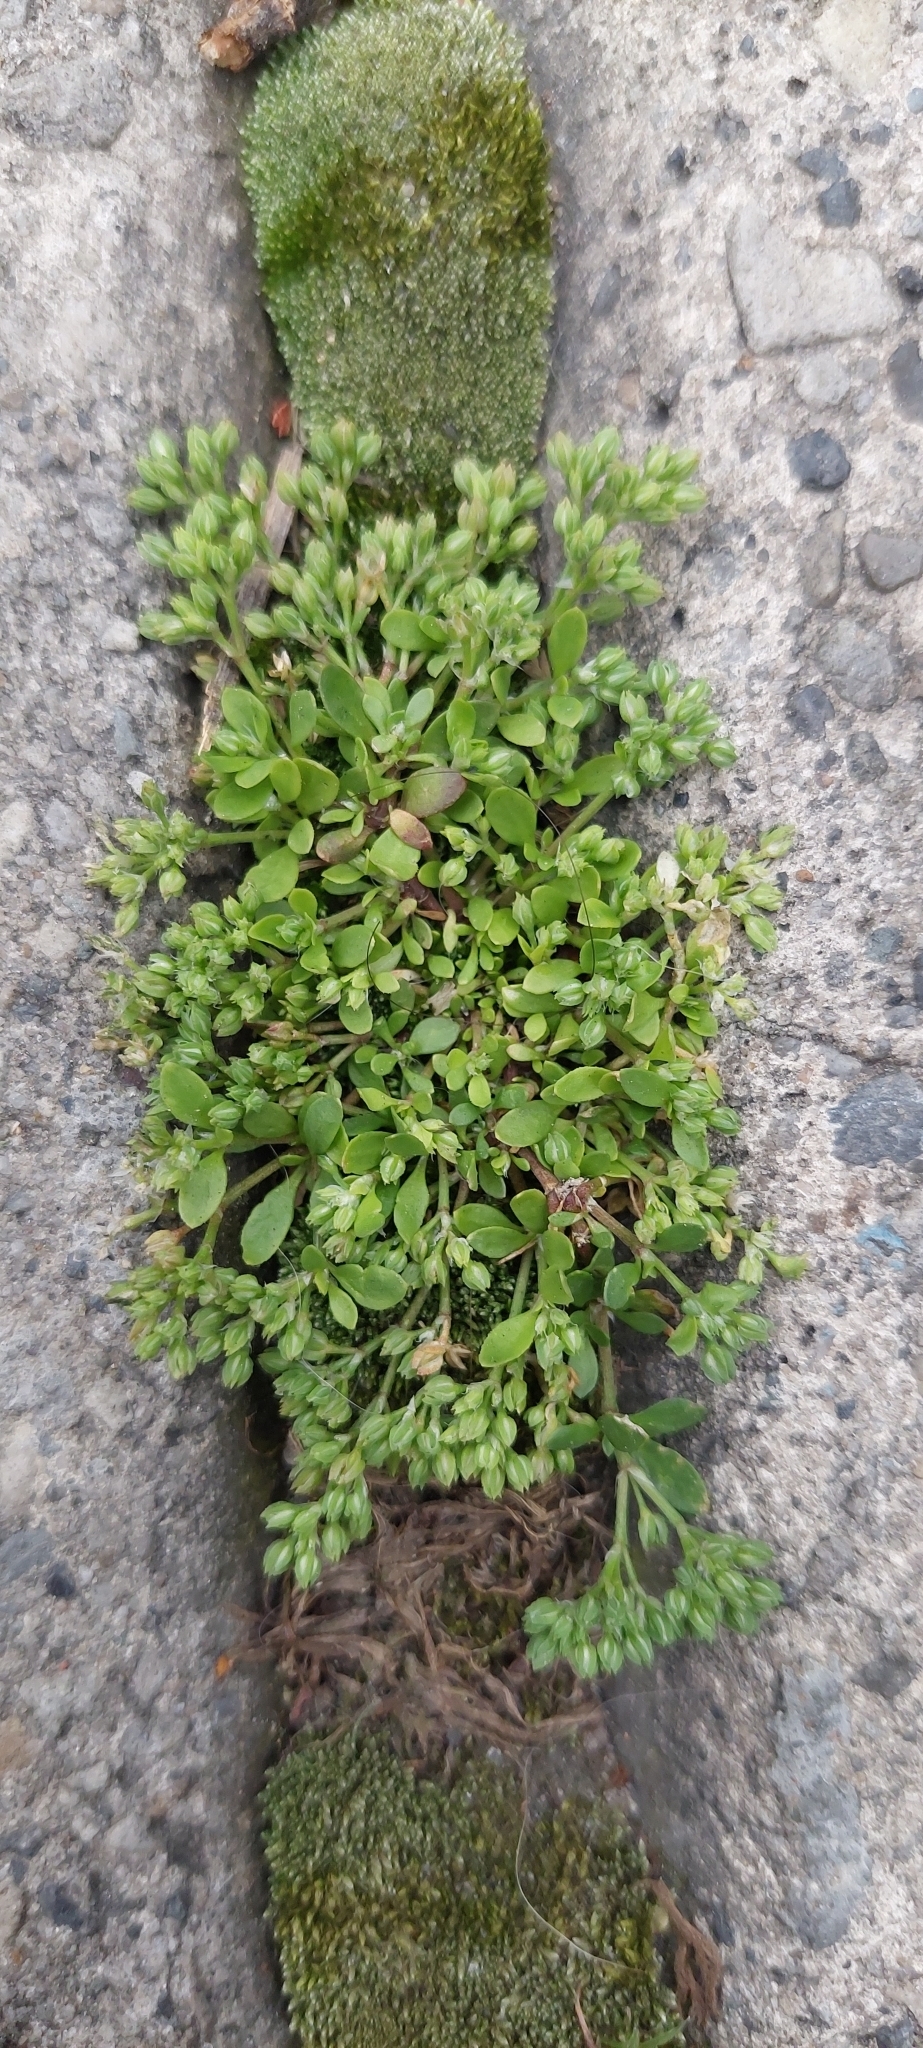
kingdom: Plantae
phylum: Tracheophyta
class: Magnoliopsida
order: Caryophyllales
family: Caryophyllaceae
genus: Polycarpon
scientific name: Polycarpon tetraphyllum
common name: Four-leaved all-seed
